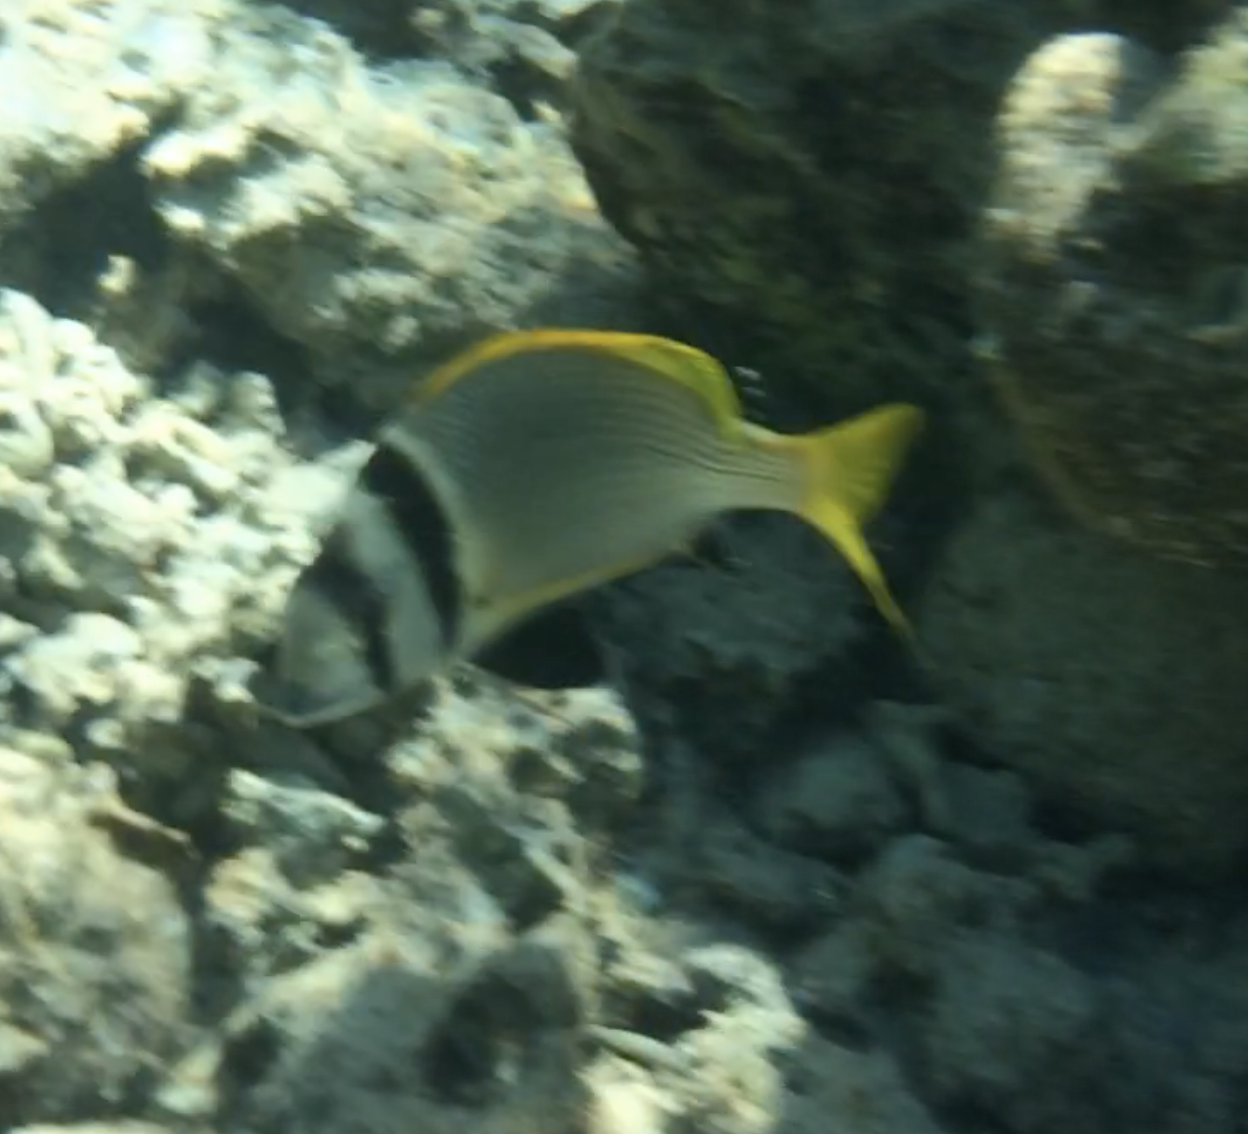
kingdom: Animalia
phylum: Chordata
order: Perciformes
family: Sparidae
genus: Acanthopagrus
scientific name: Acanthopagrus bifasciatus
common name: Twobar seabream
